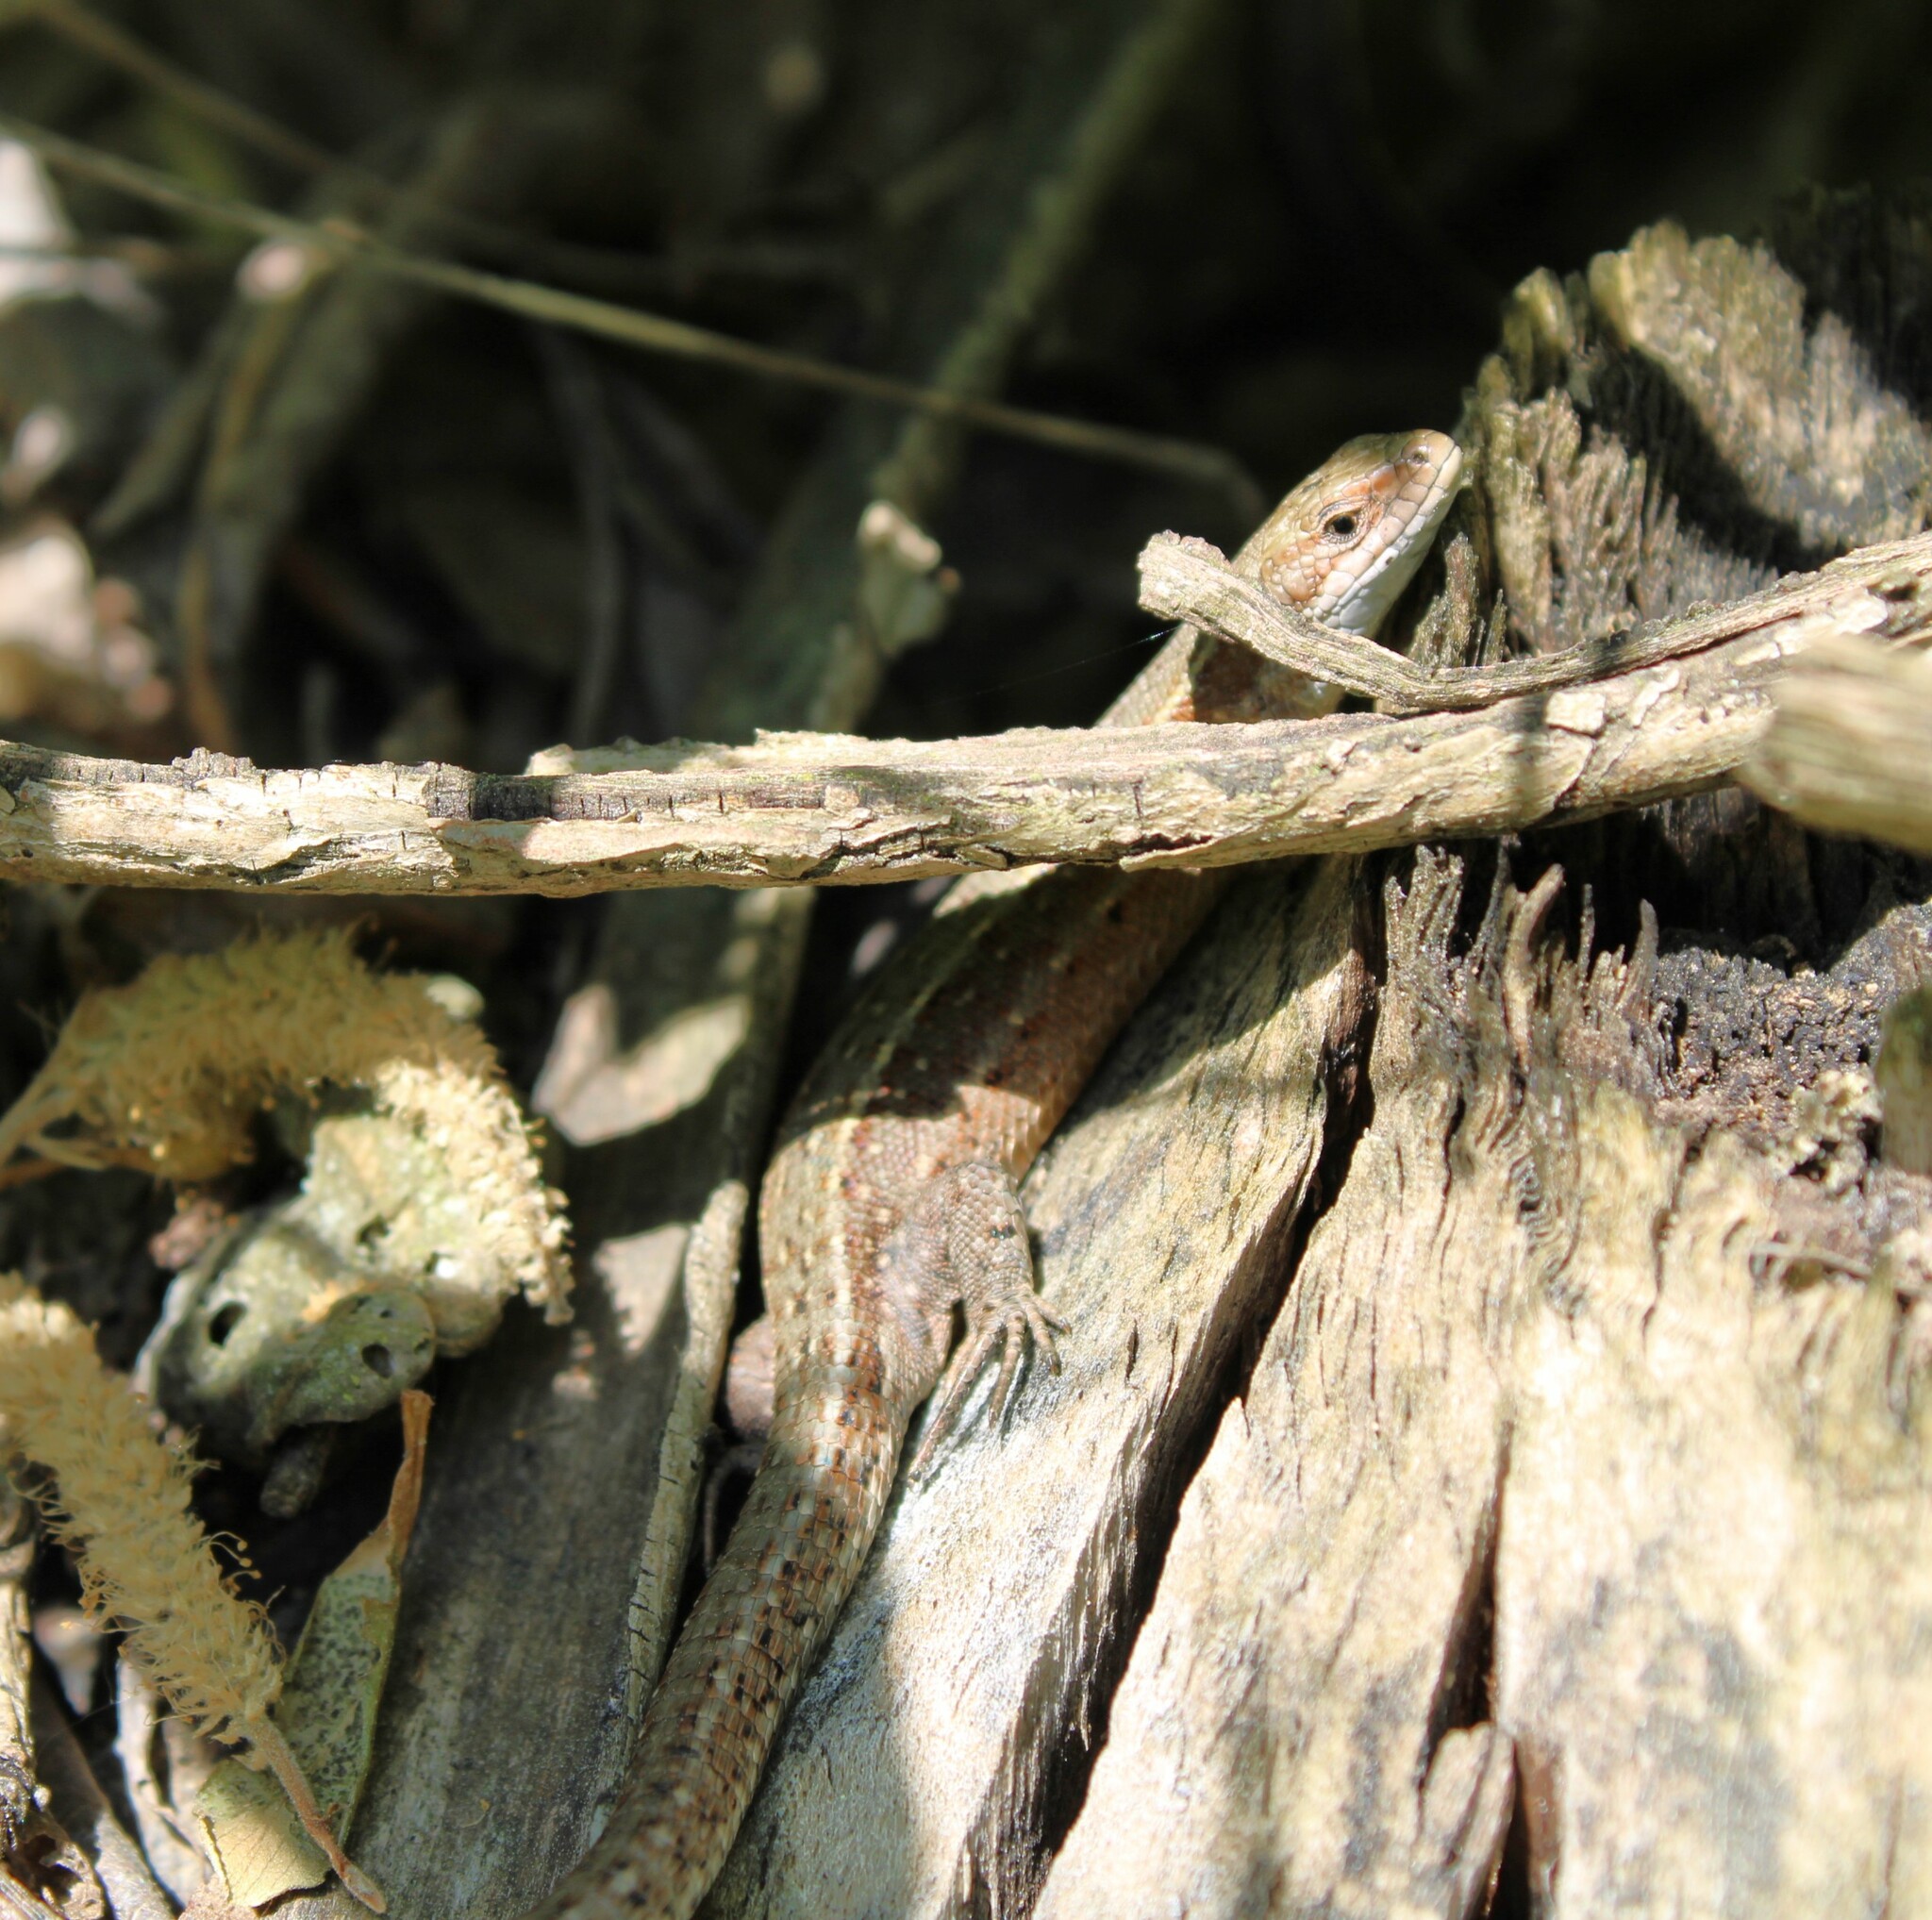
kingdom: Animalia
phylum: Chordata
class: Squamata
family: Lacertidae
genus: Zootoca
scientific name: Zootoca vivipara
